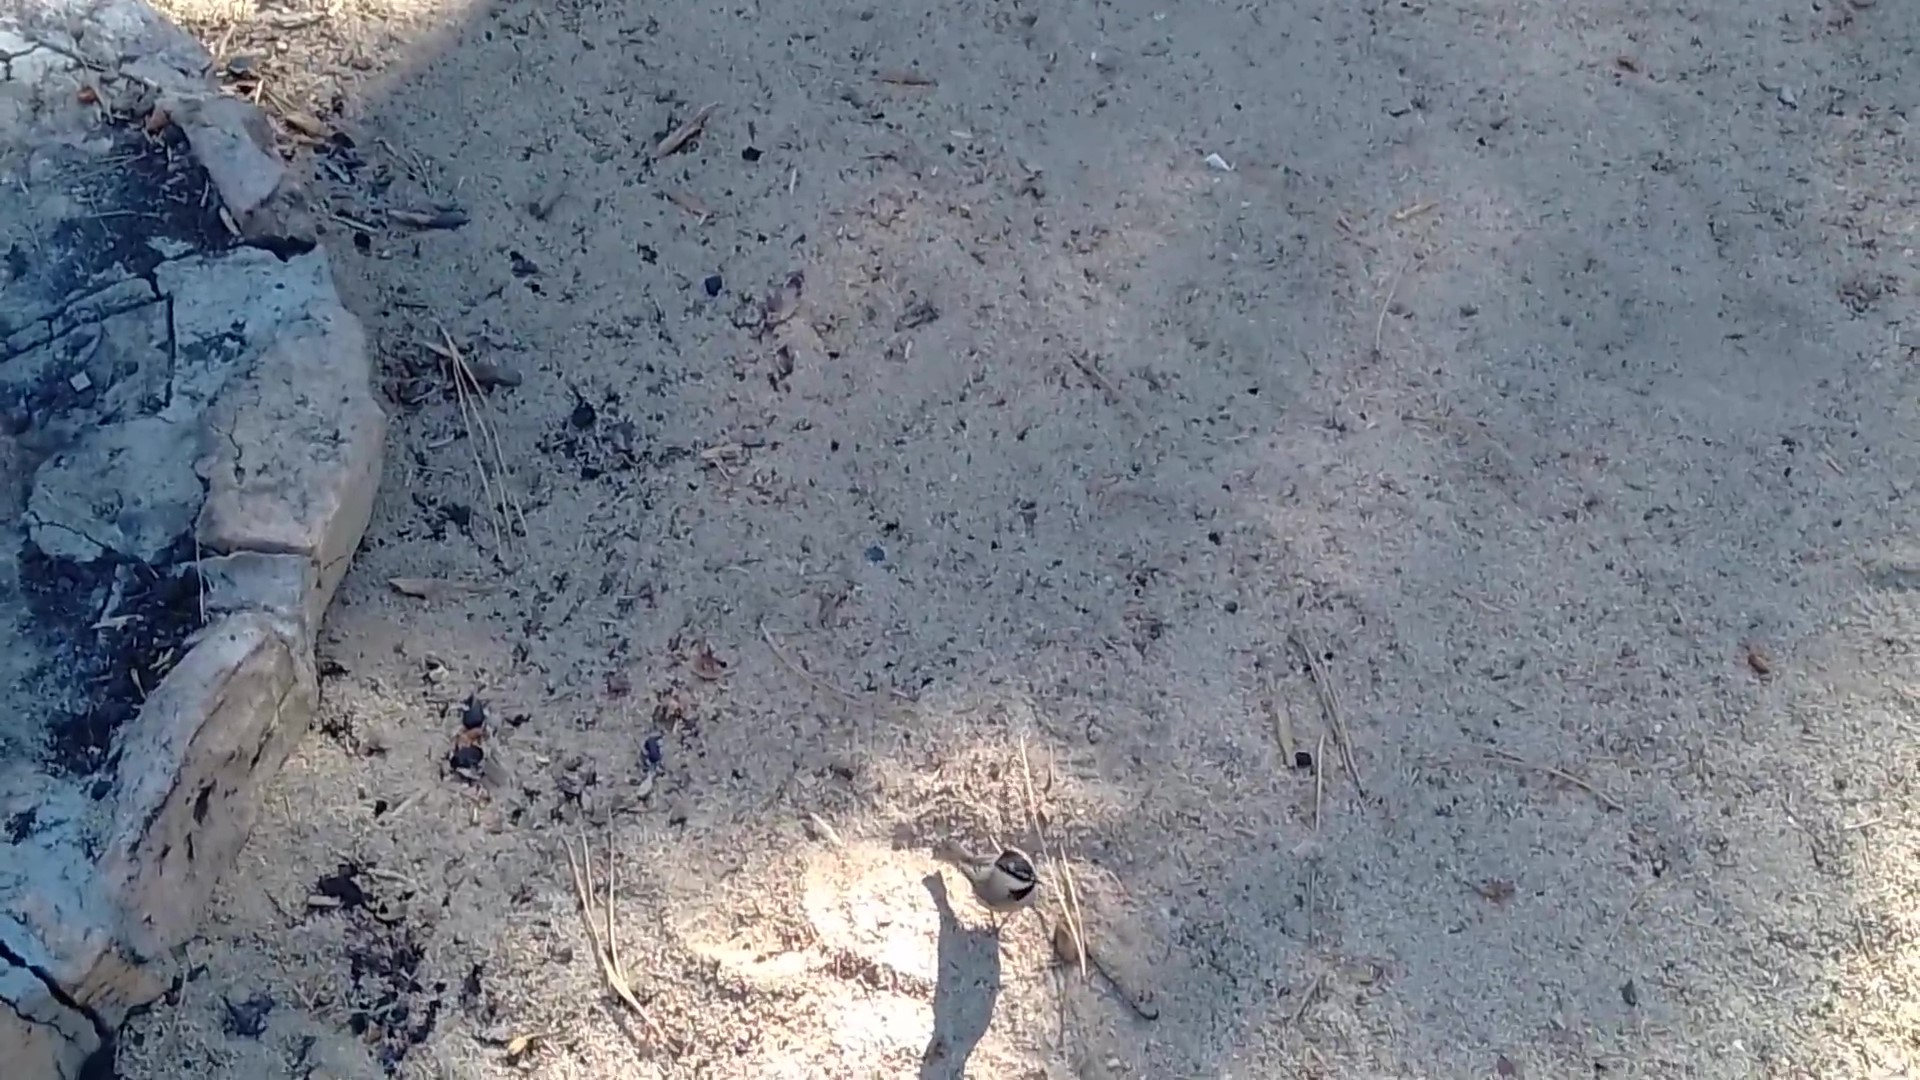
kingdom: Animalia
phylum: Chordata
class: Aves
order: Passeriformes
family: Paridae
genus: Poecile
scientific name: Poecile gambeli
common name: Mountain chickadee
